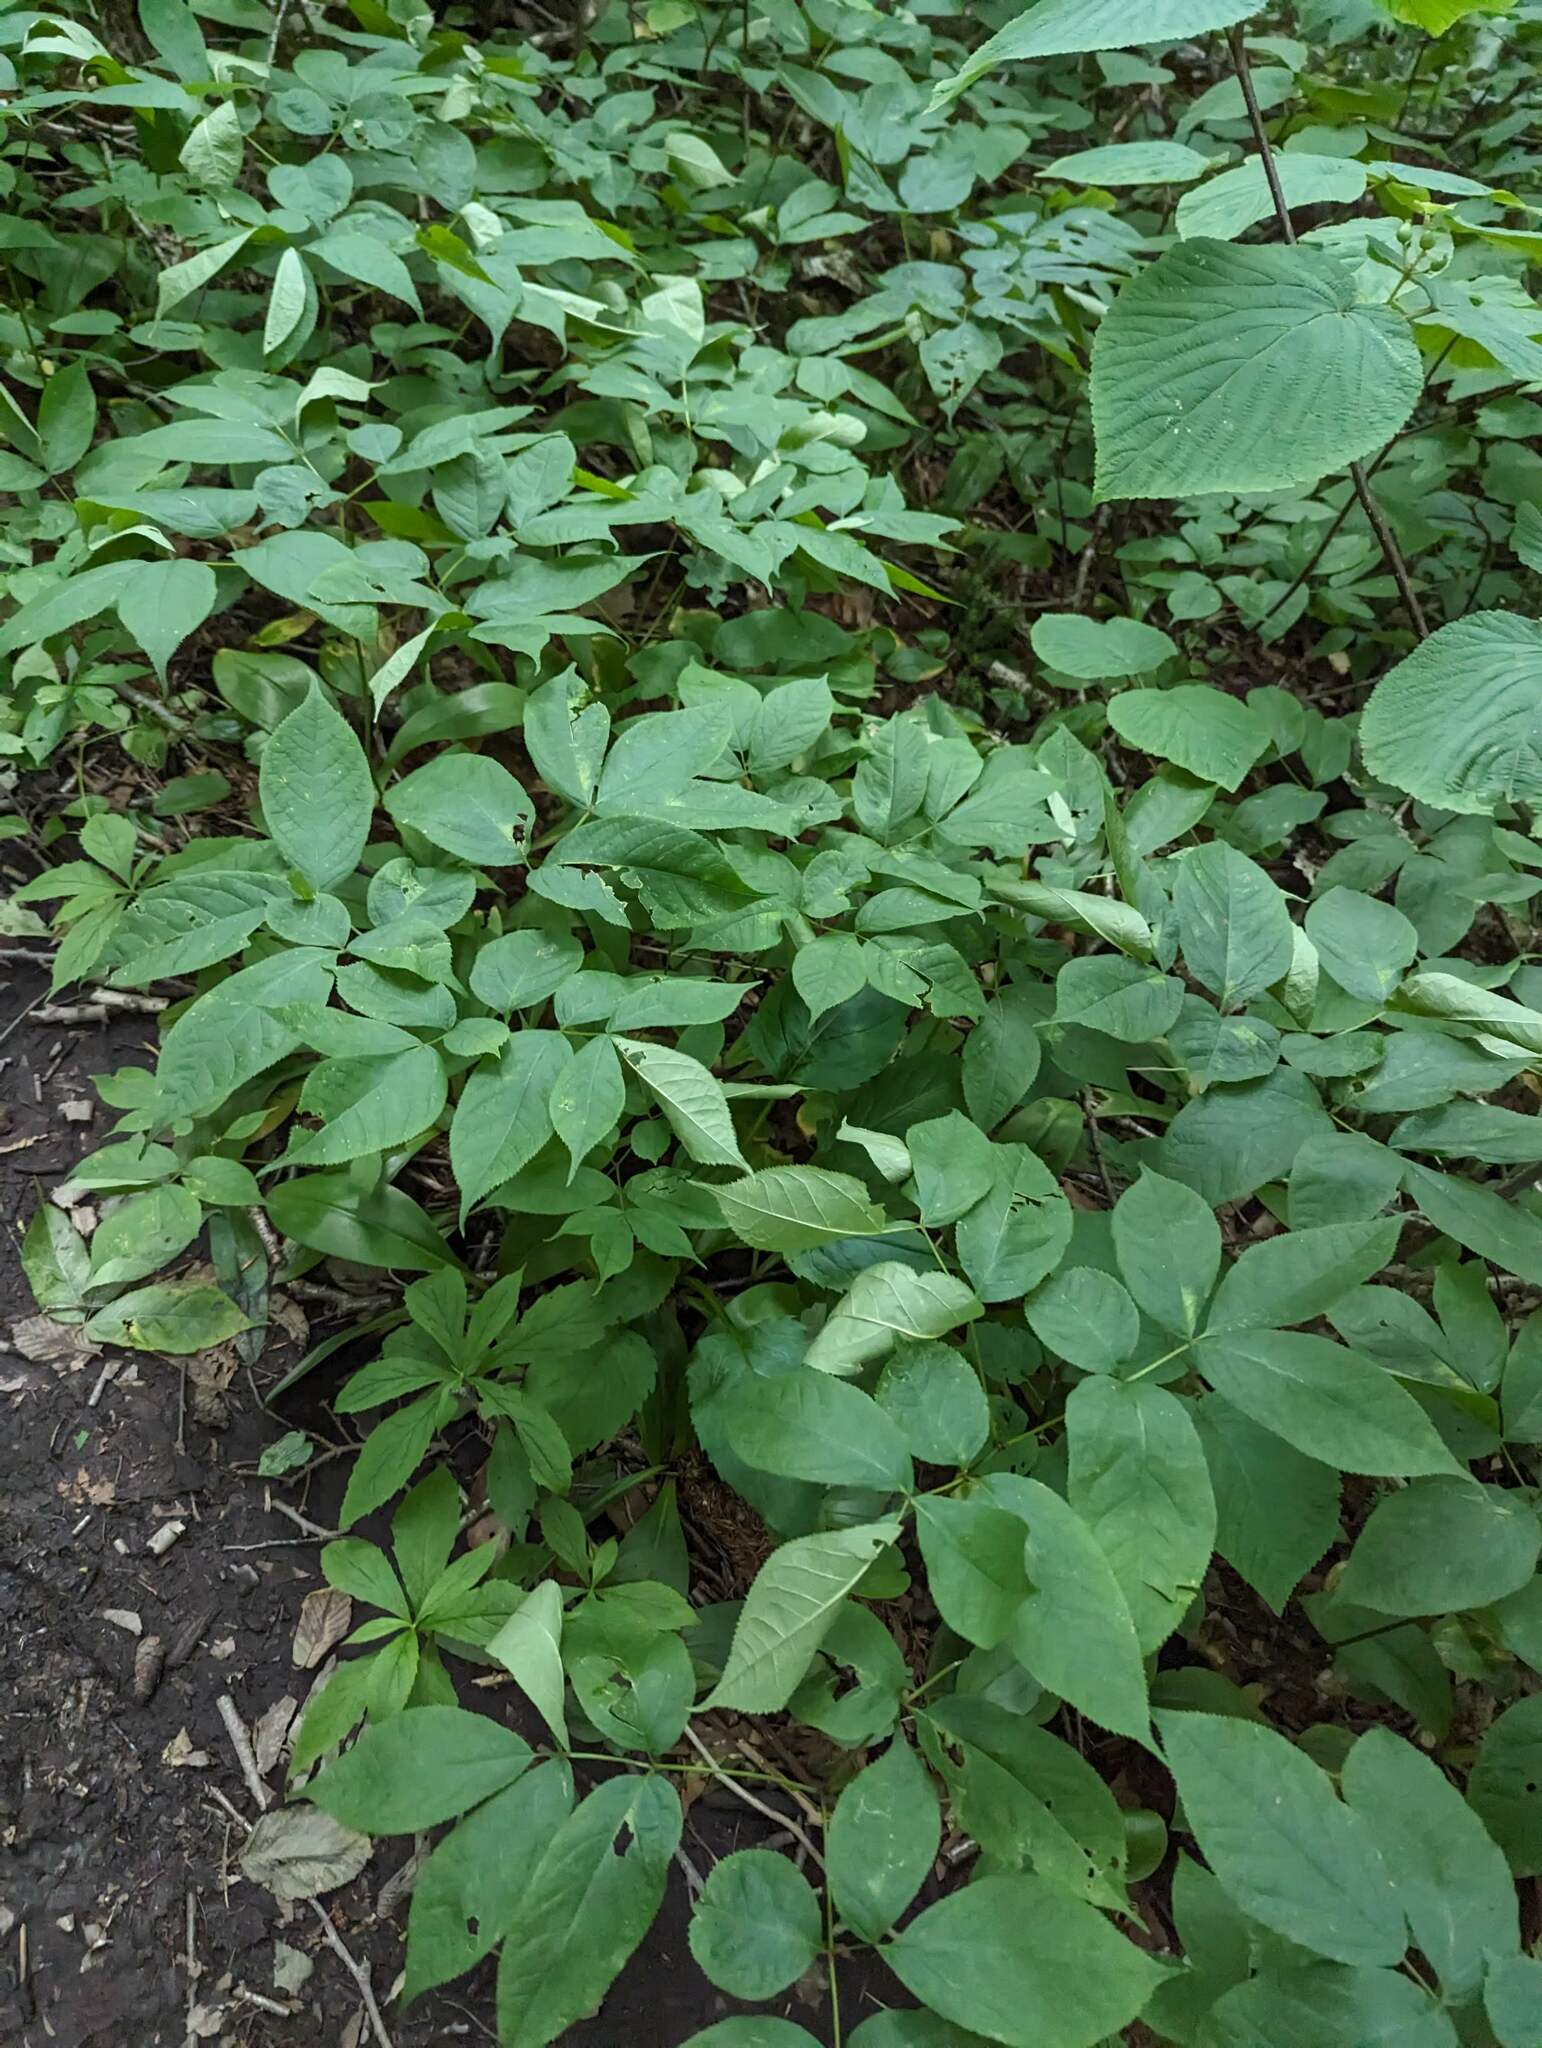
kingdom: Plantae
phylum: Tracheophyta
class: Magnoliopsida
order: Apiales
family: Araliaceae
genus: Aralia
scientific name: Aralia nudicaulis
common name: Wild sarsaparilla
